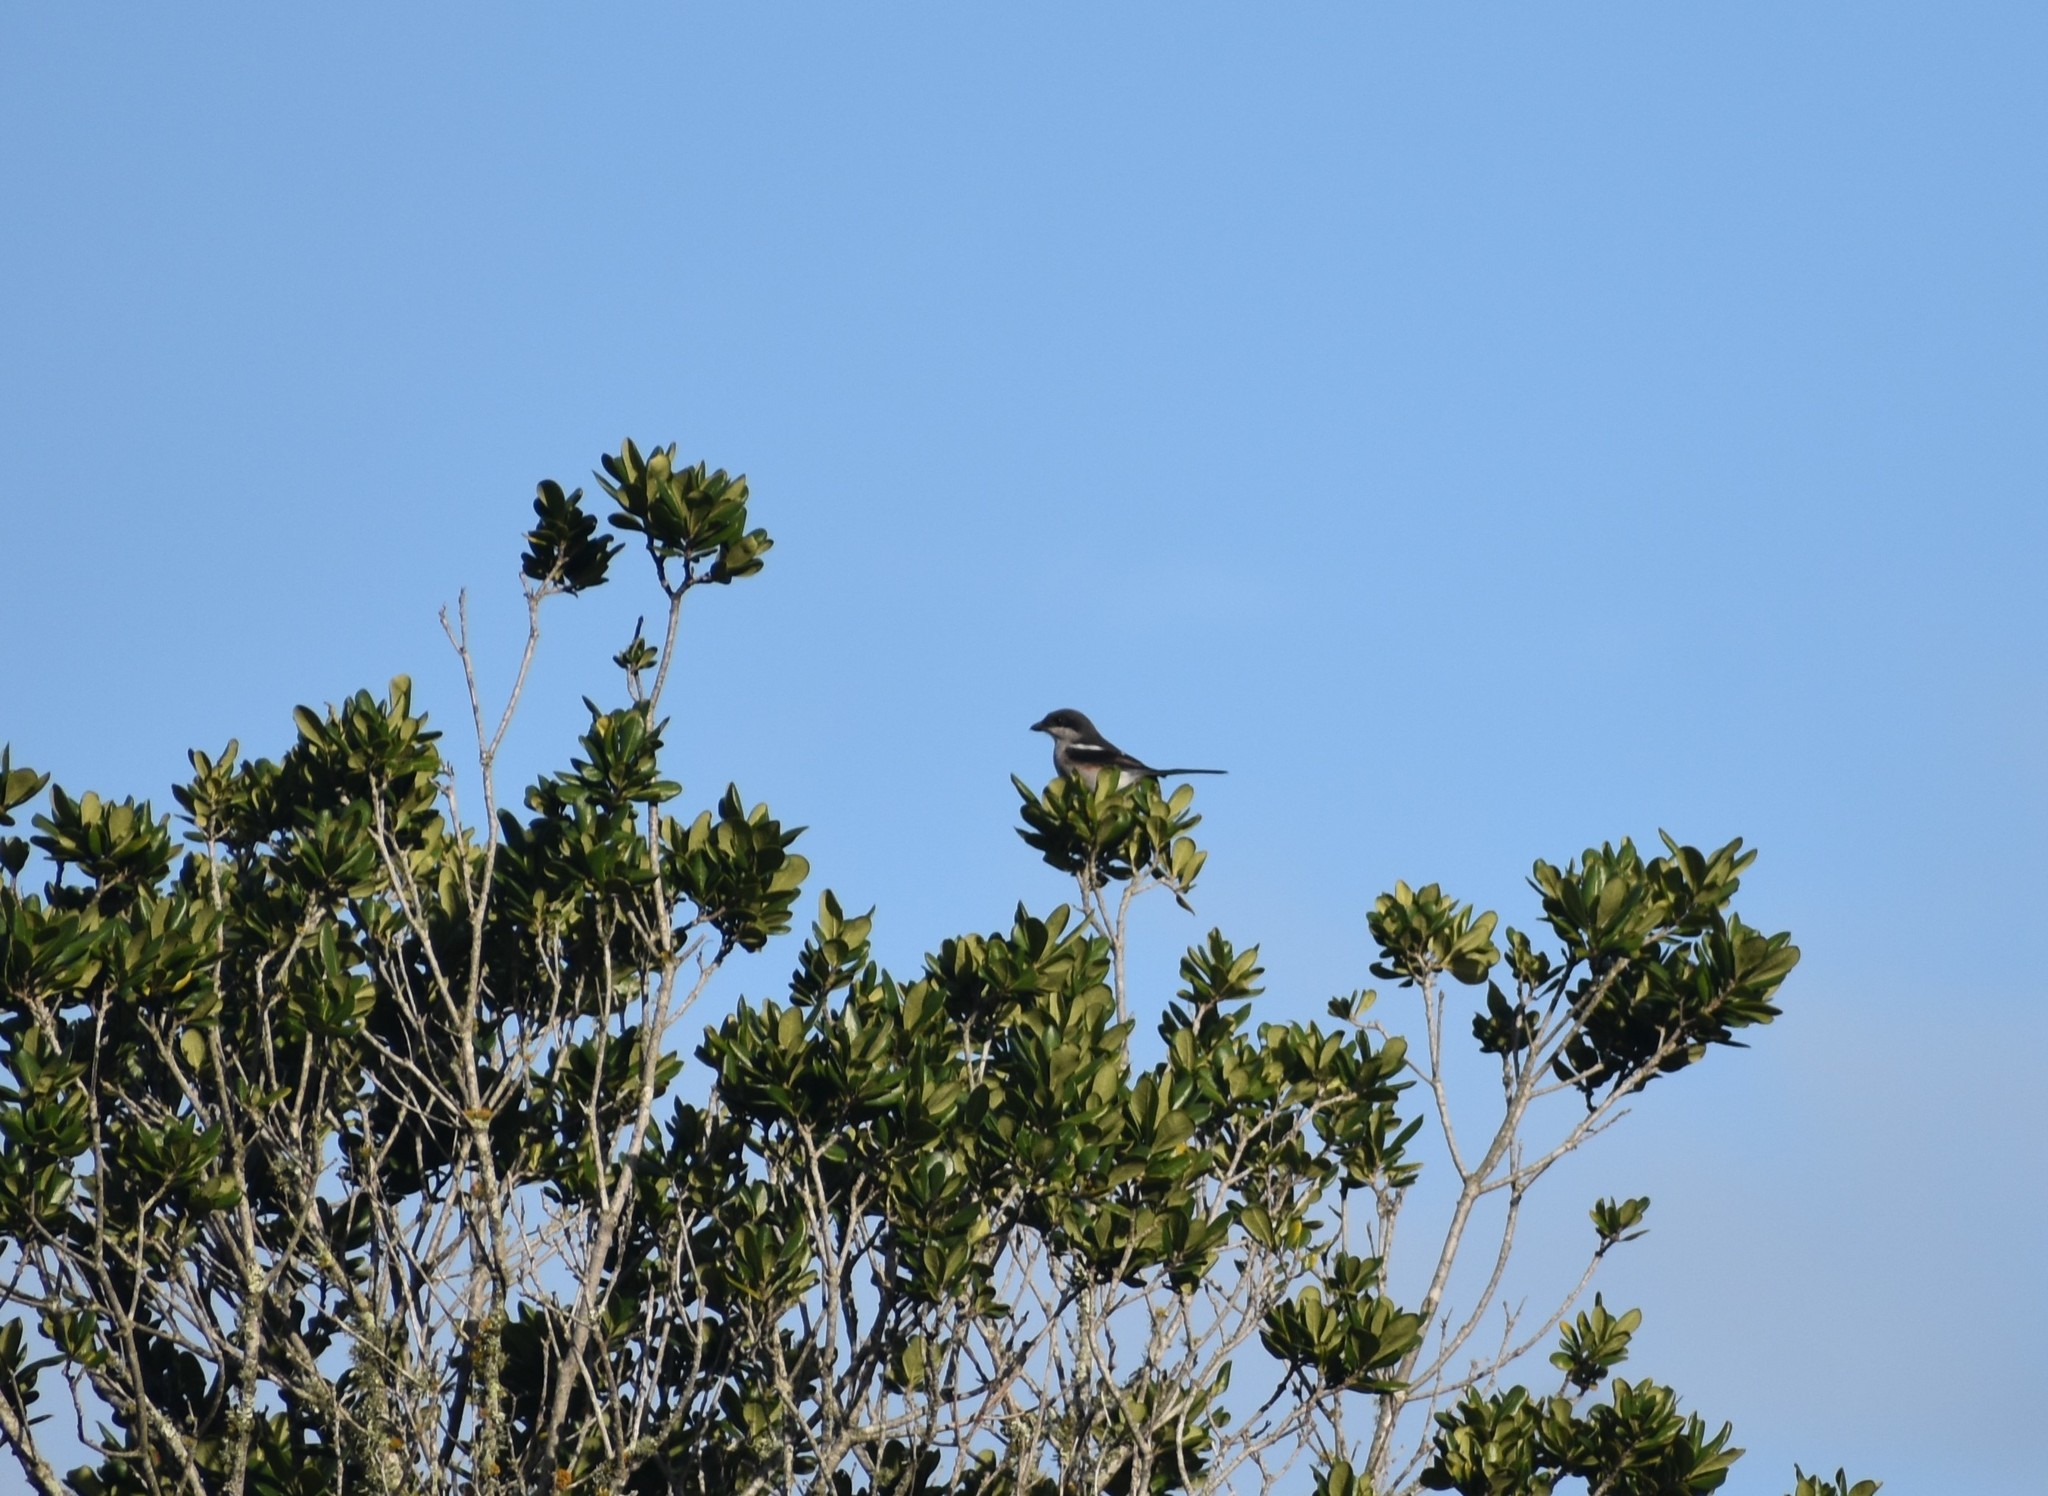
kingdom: Animalia
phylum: Chordata
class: Aves
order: Passeriformes
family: Laniidae
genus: Lanius
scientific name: Lanius collaris
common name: Southern fiscal
